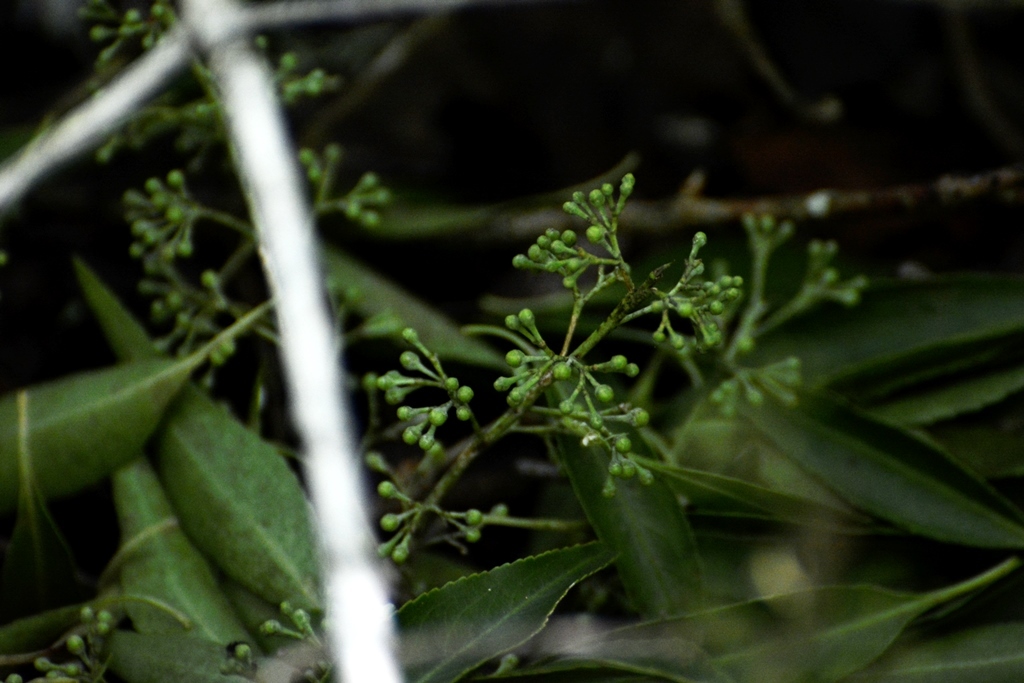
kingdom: Plantae
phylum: Tracheophyta
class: Magnoliopsida
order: Celastrales
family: Celastraceae
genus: Monteverdia
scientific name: Monteverdia chiapensis
